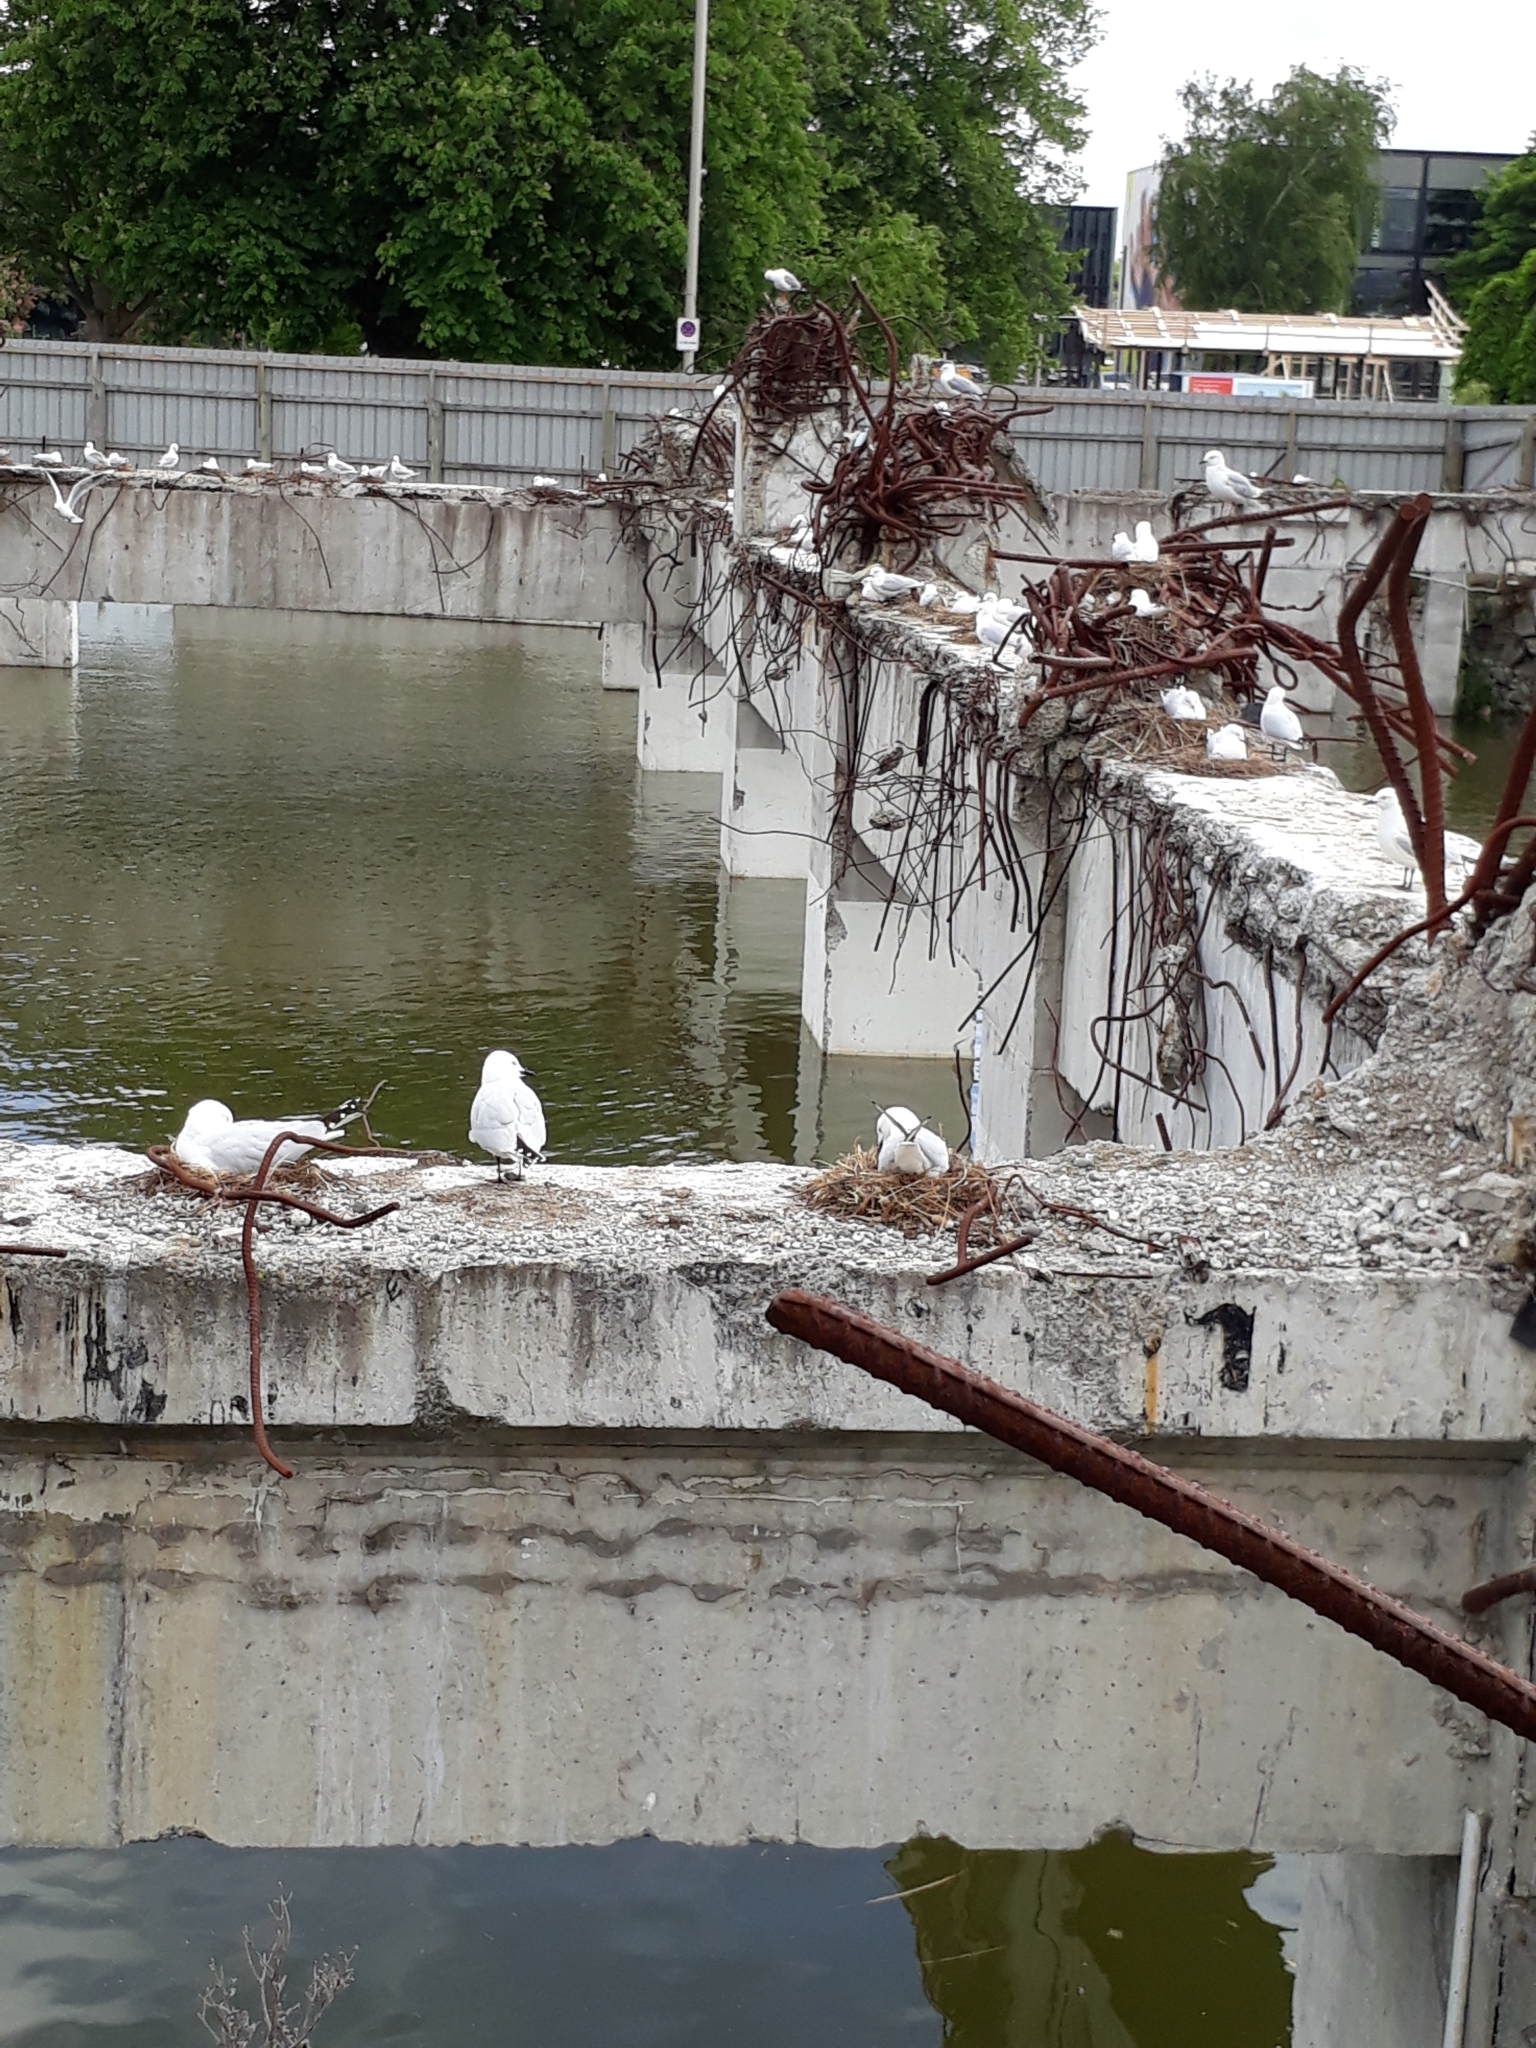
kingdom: Animalia
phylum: Chordata
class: Aves
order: Charadriiformes
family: Laridae
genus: Chroicocephalus
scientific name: Chroicocephalus bulleri
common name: Black-billed gull
